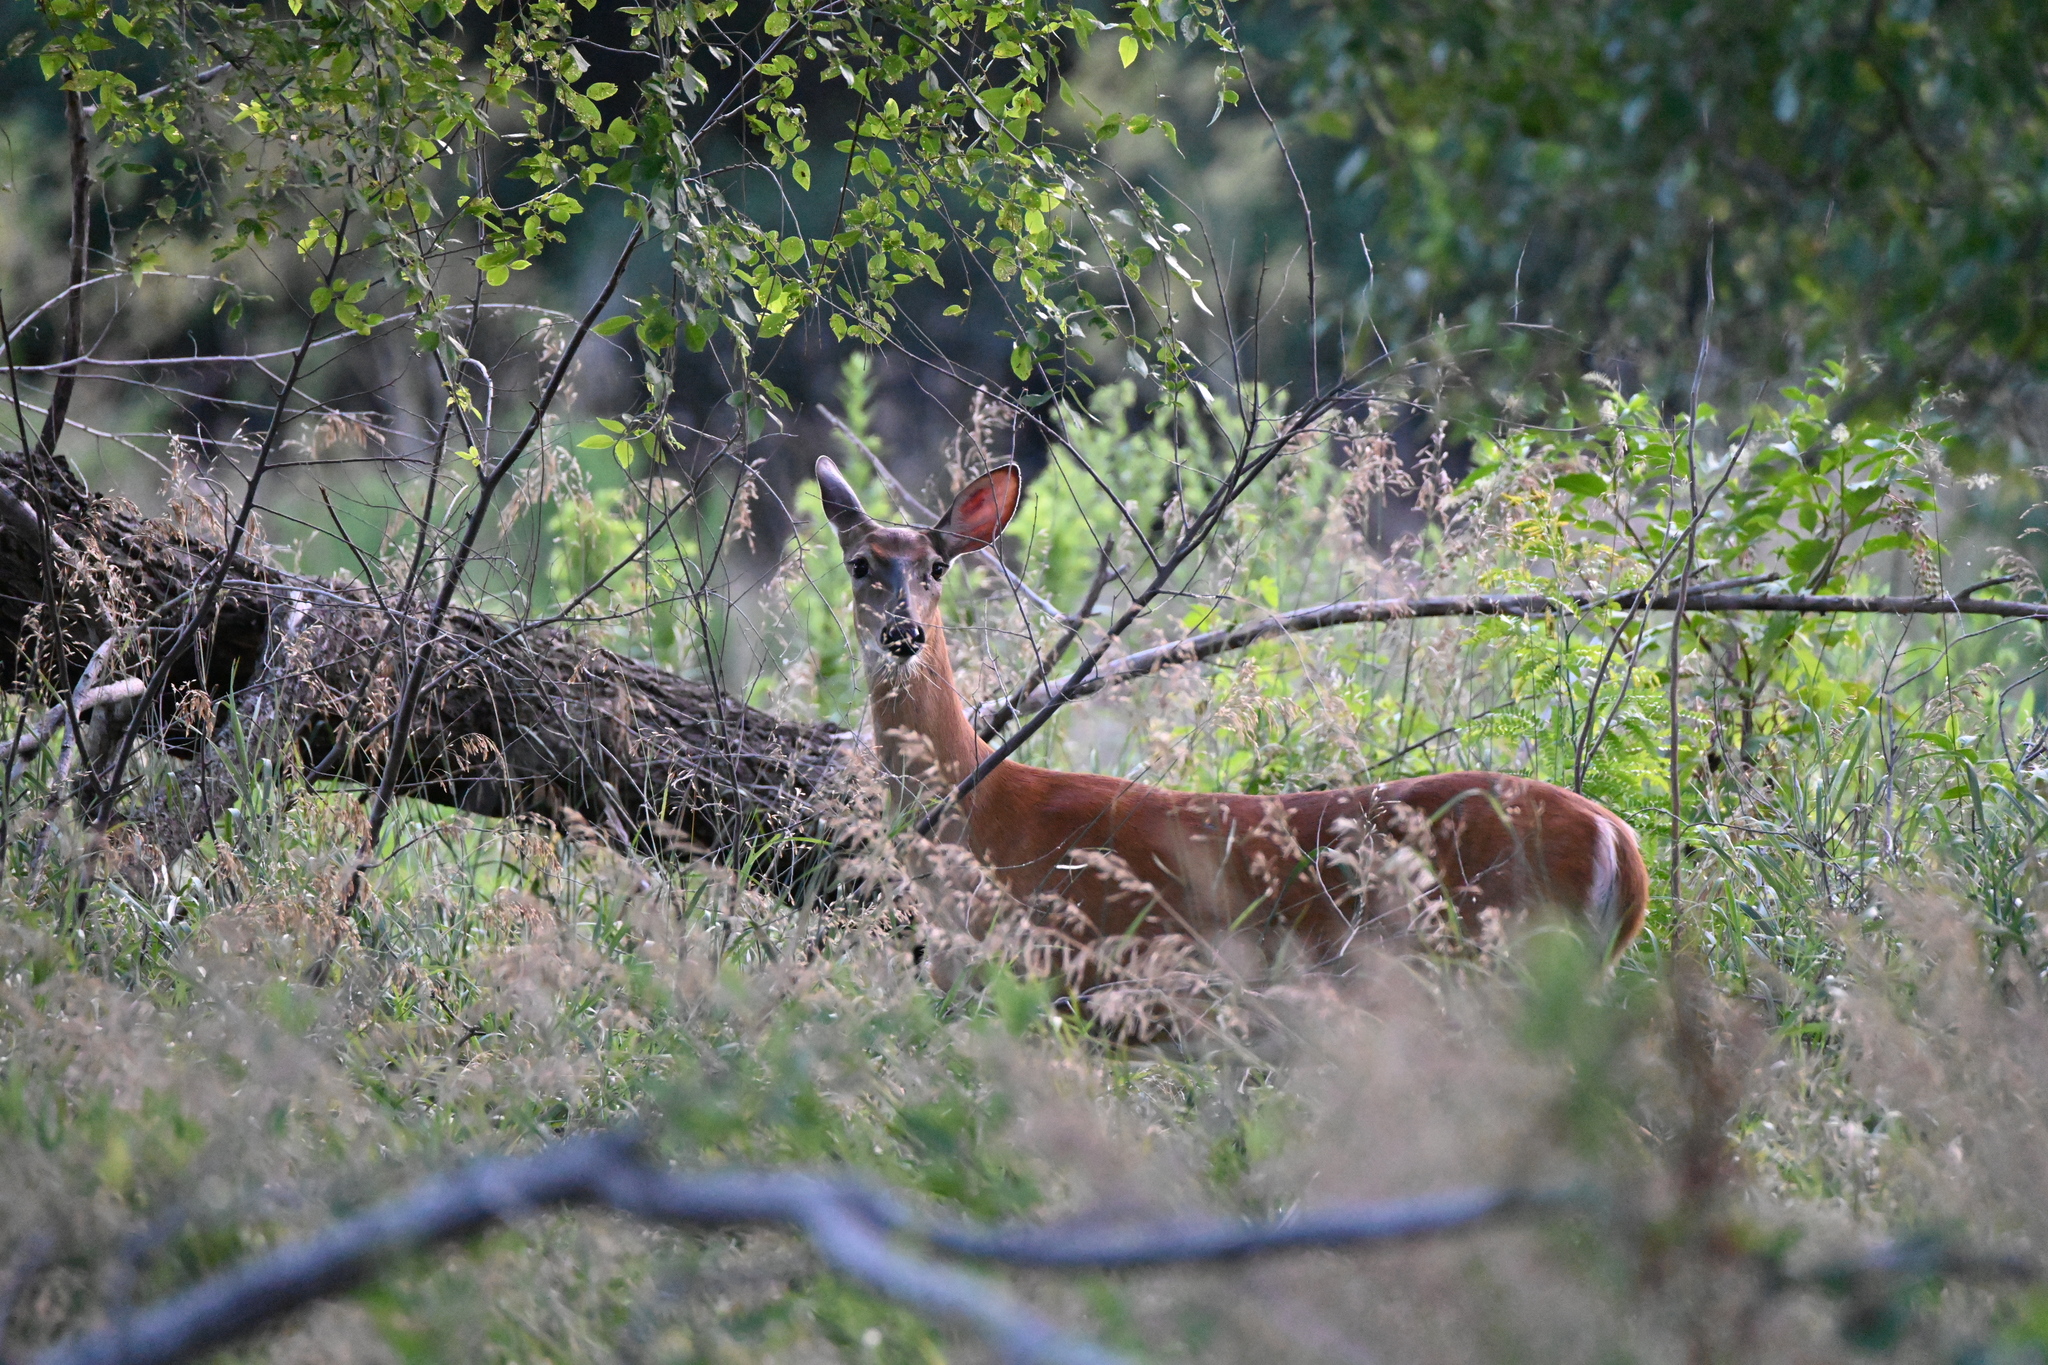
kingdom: Animalia
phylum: Chordata
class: Mammalia
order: Artiodactyla
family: Cervidae
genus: Odocoileus
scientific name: Odocoileus virginianus
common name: White-tailed deer
